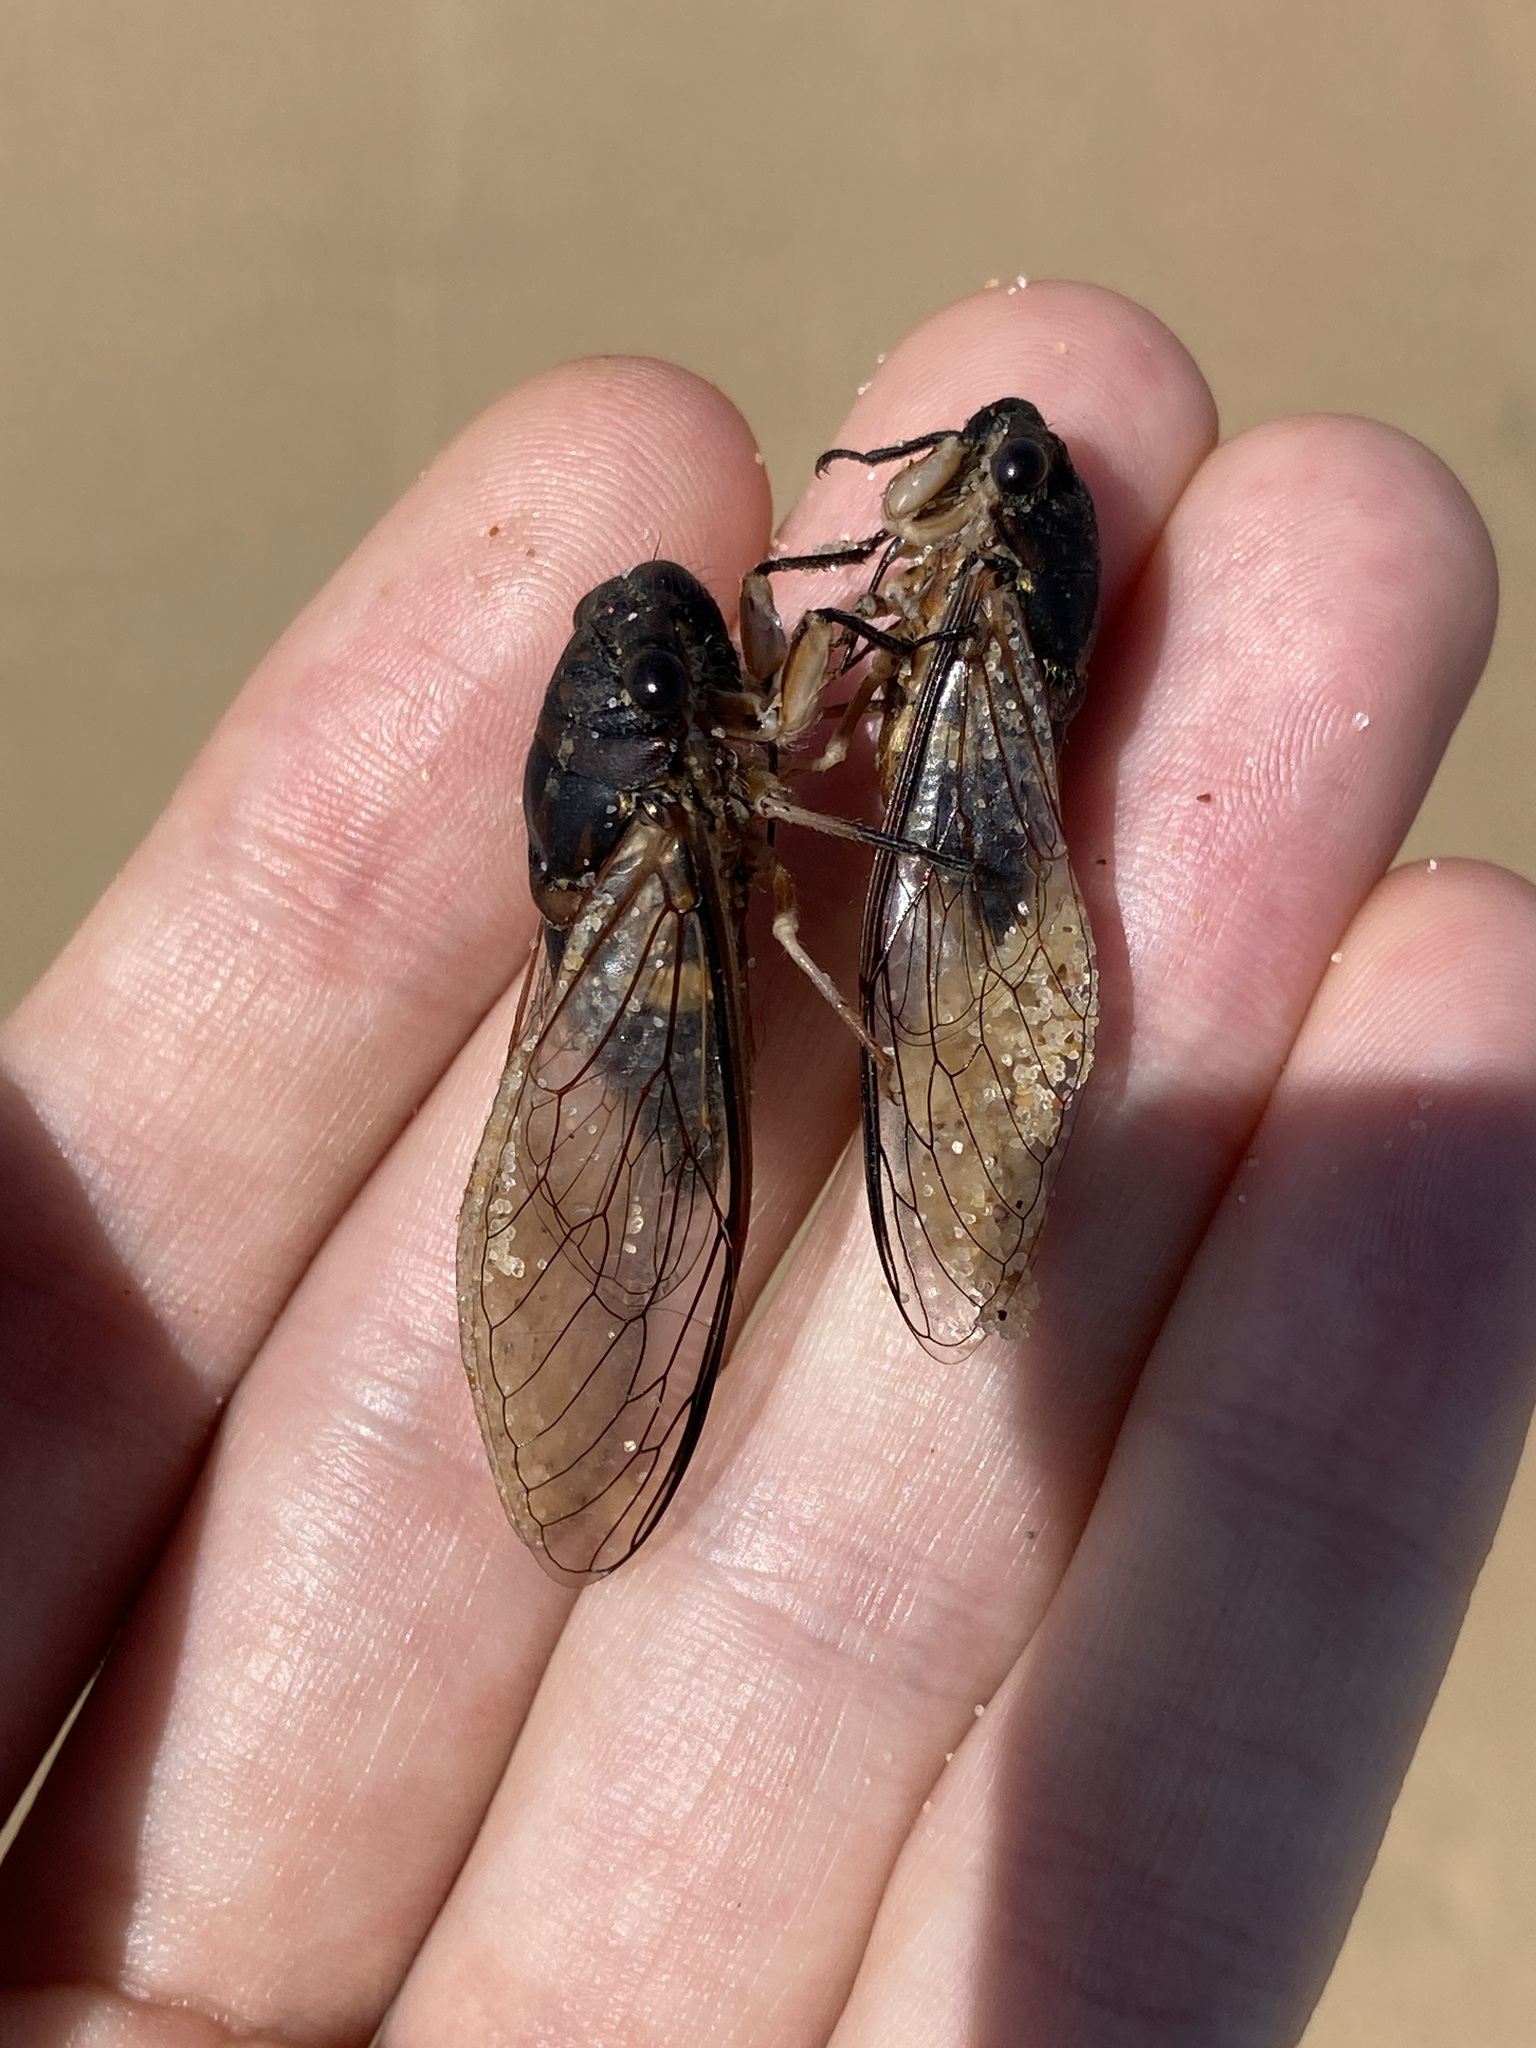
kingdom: Animalia
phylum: Arthropoda
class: Insecta
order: Hemiptera
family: Cicadidae
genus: Psaltoda
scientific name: Psaltoda harrisii
